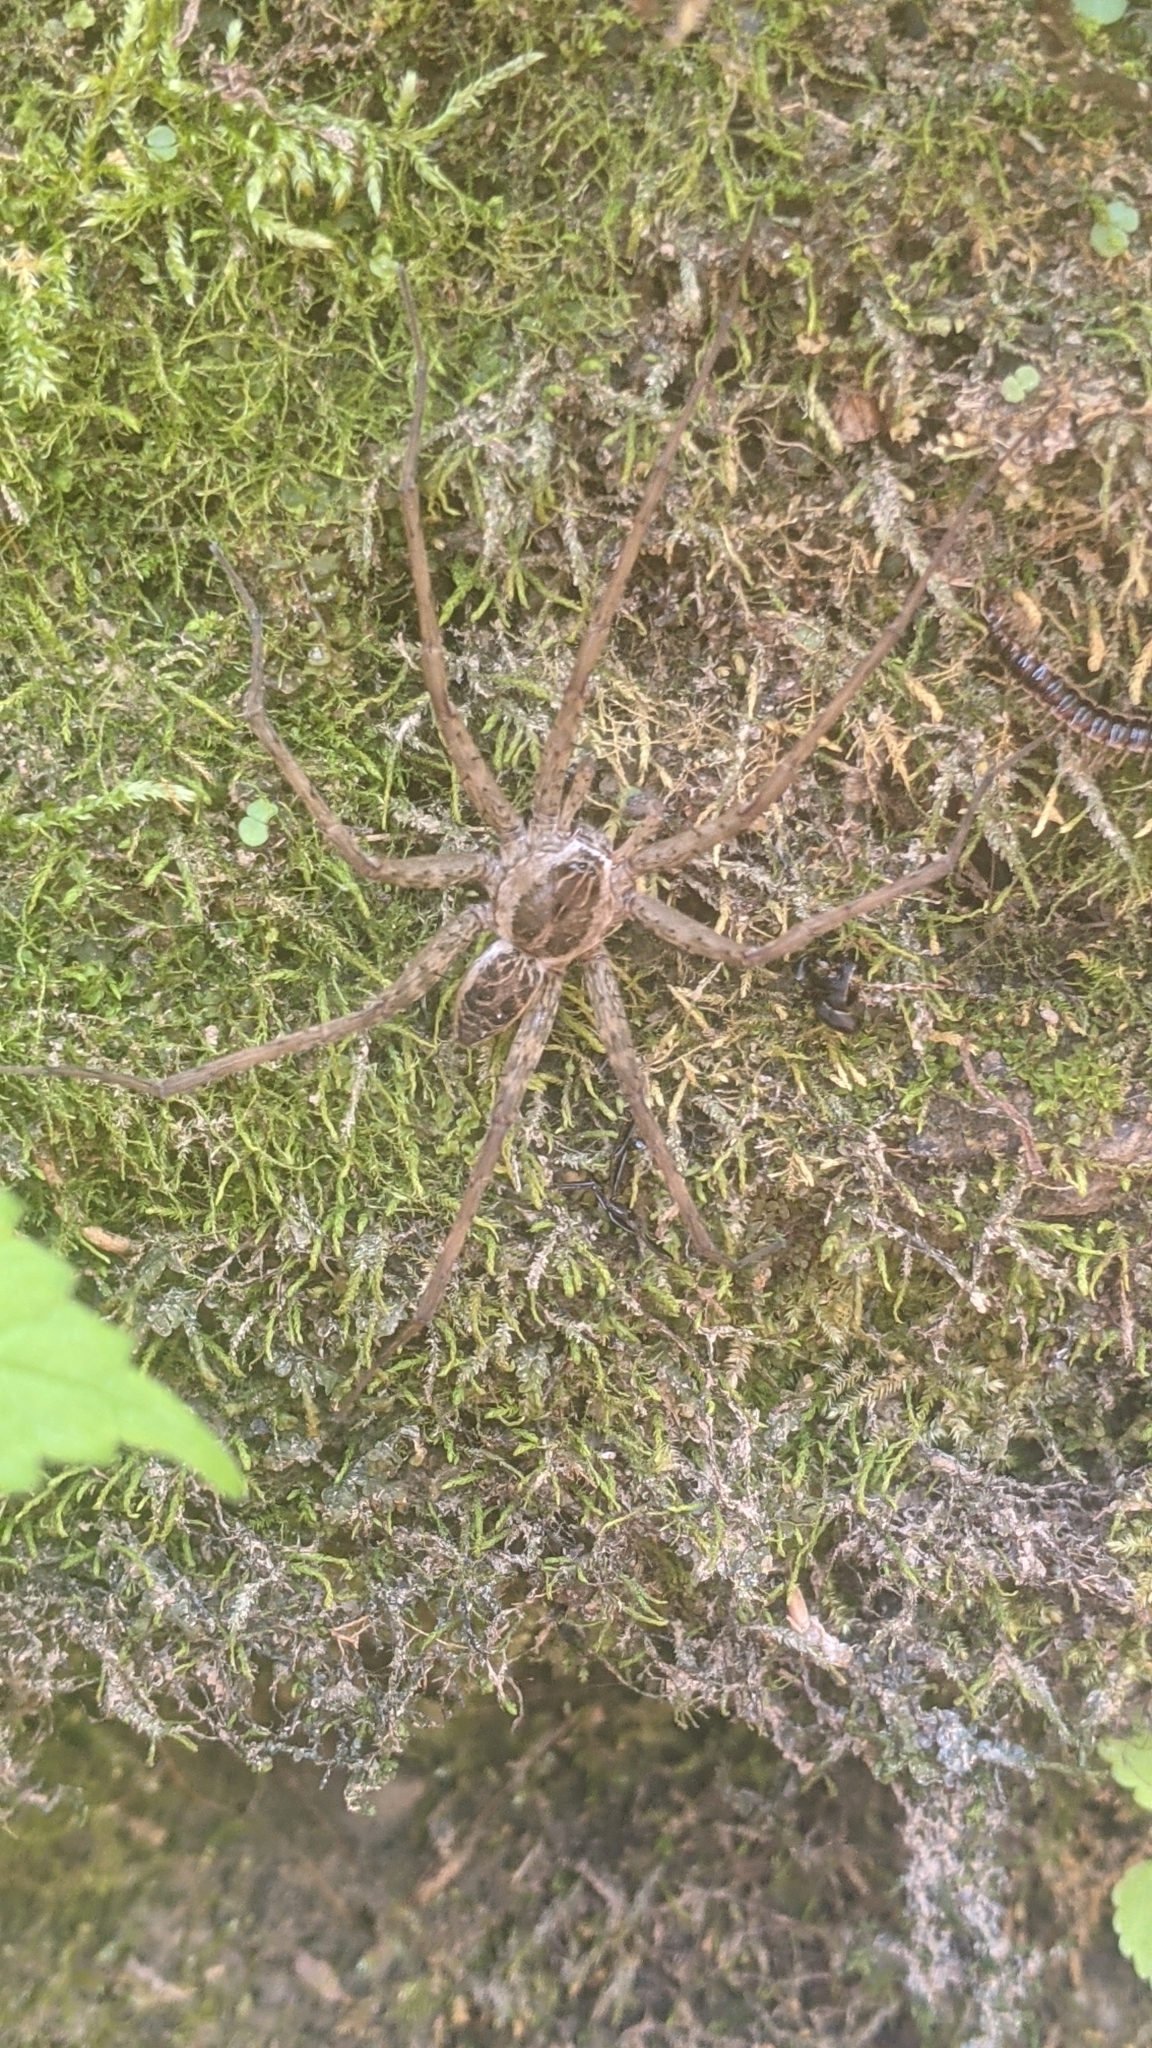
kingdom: Animalia
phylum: Arthropoda
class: Arachnida
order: Araneae
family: Pisauridae
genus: Dolomedes
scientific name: Dolomedes scriptus
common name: Striped fishing spider
